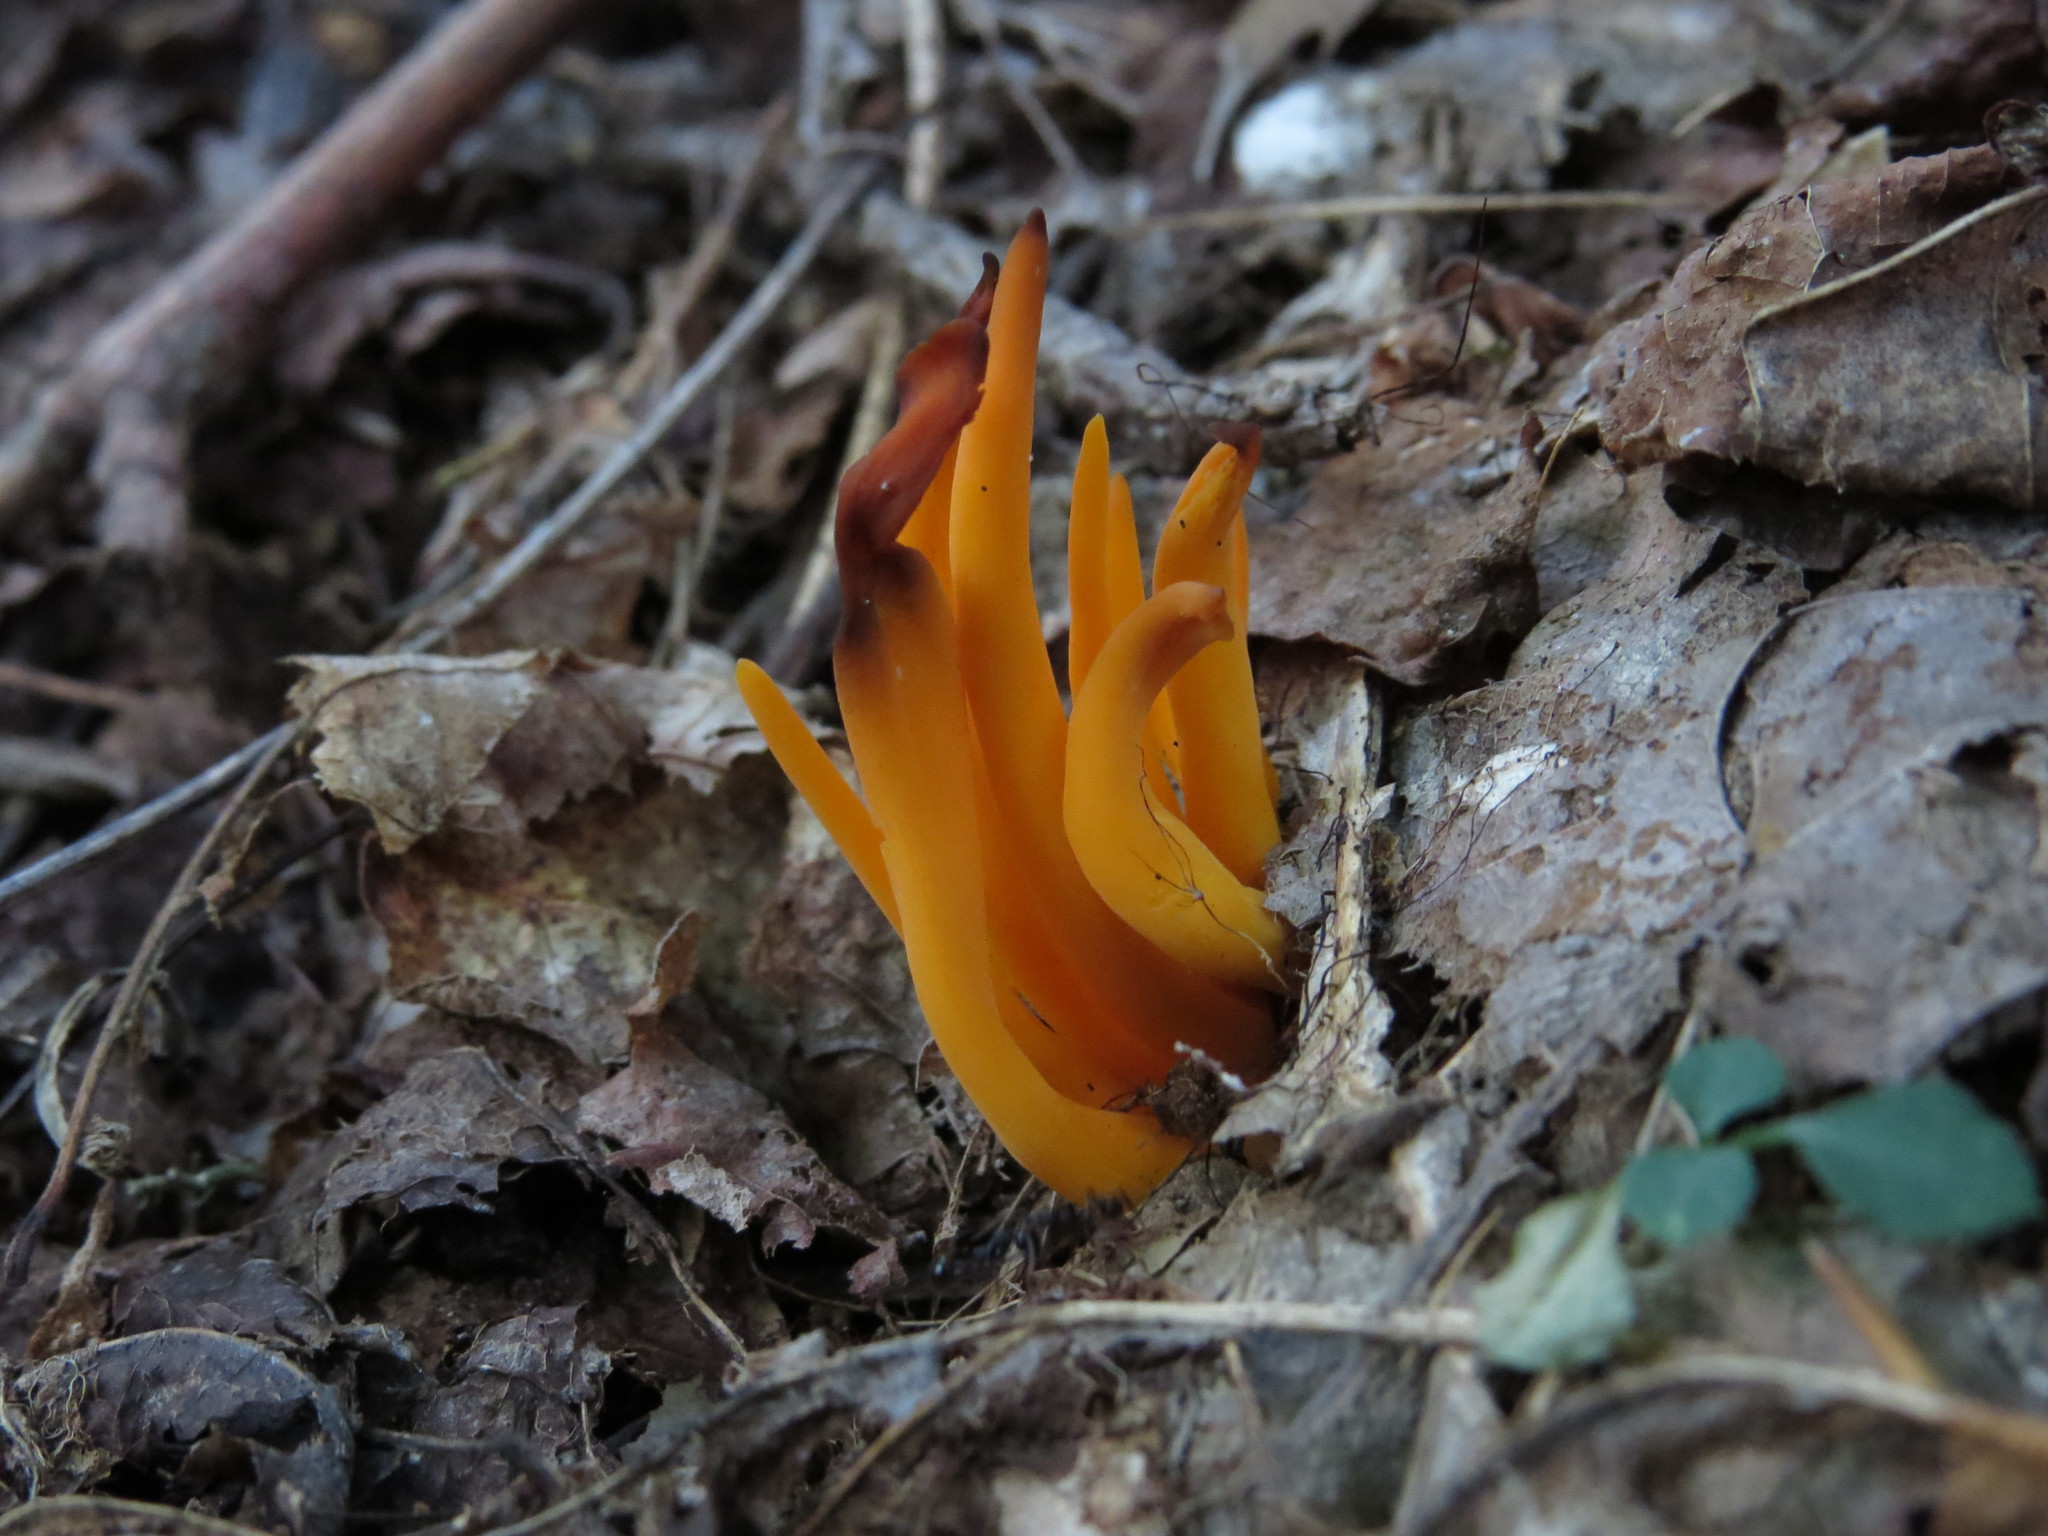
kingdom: Fungi
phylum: Basidiomycota
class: Agaricomycetes
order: Agaricales
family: Clavariaceae
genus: Clavulinopsis
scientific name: Clavulinopsis fusiformis
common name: Golden spindles
